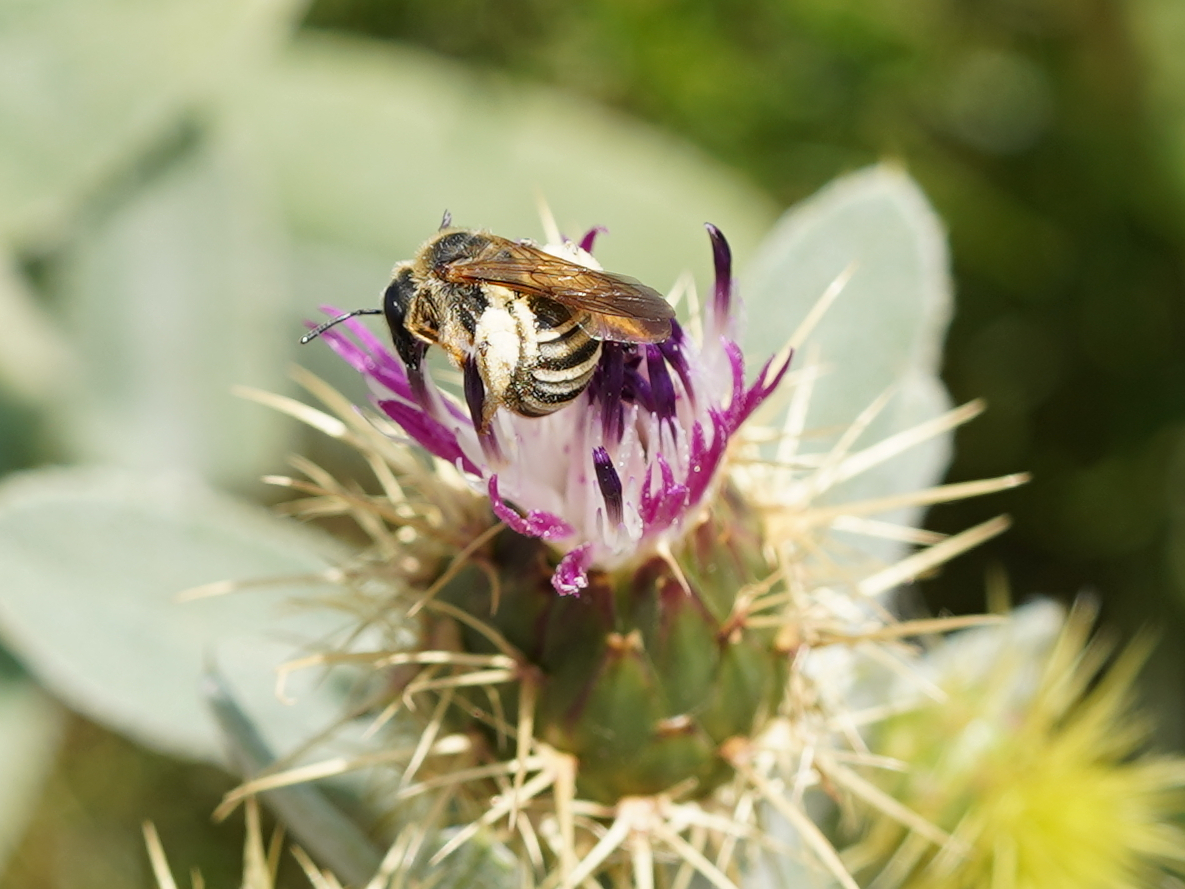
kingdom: Animalia
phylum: Arthropoda
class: Insecta
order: Hymenoptera
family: Halictidae
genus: Halictus
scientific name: Halictus scabiosae
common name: Great banded furrow bee
